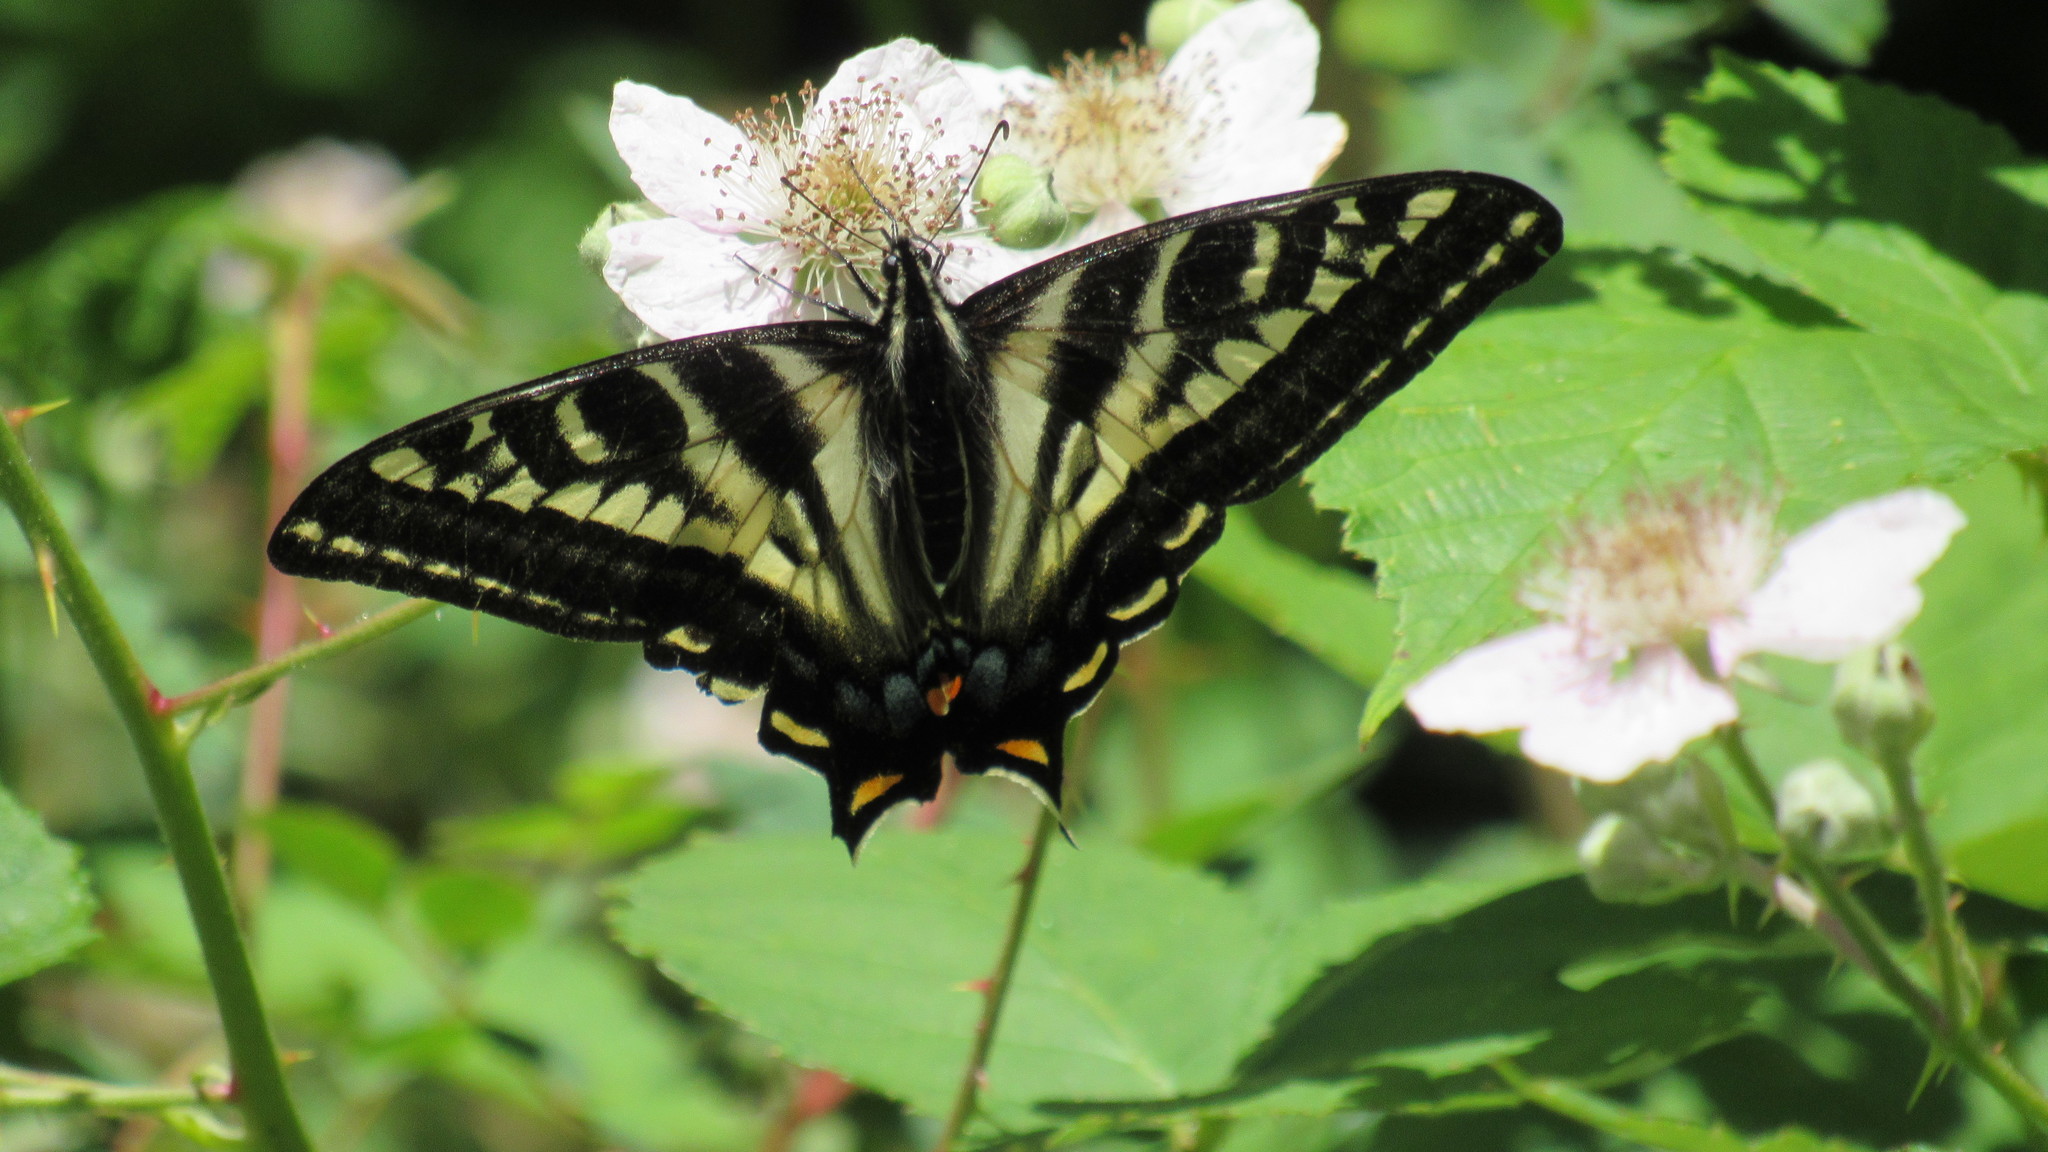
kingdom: Animalia
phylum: Arthropoda
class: Insecta
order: Lepidoptera
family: Papilionidae
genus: Papilio
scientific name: Papilio eurymedon
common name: Pale tiger swallowtail
